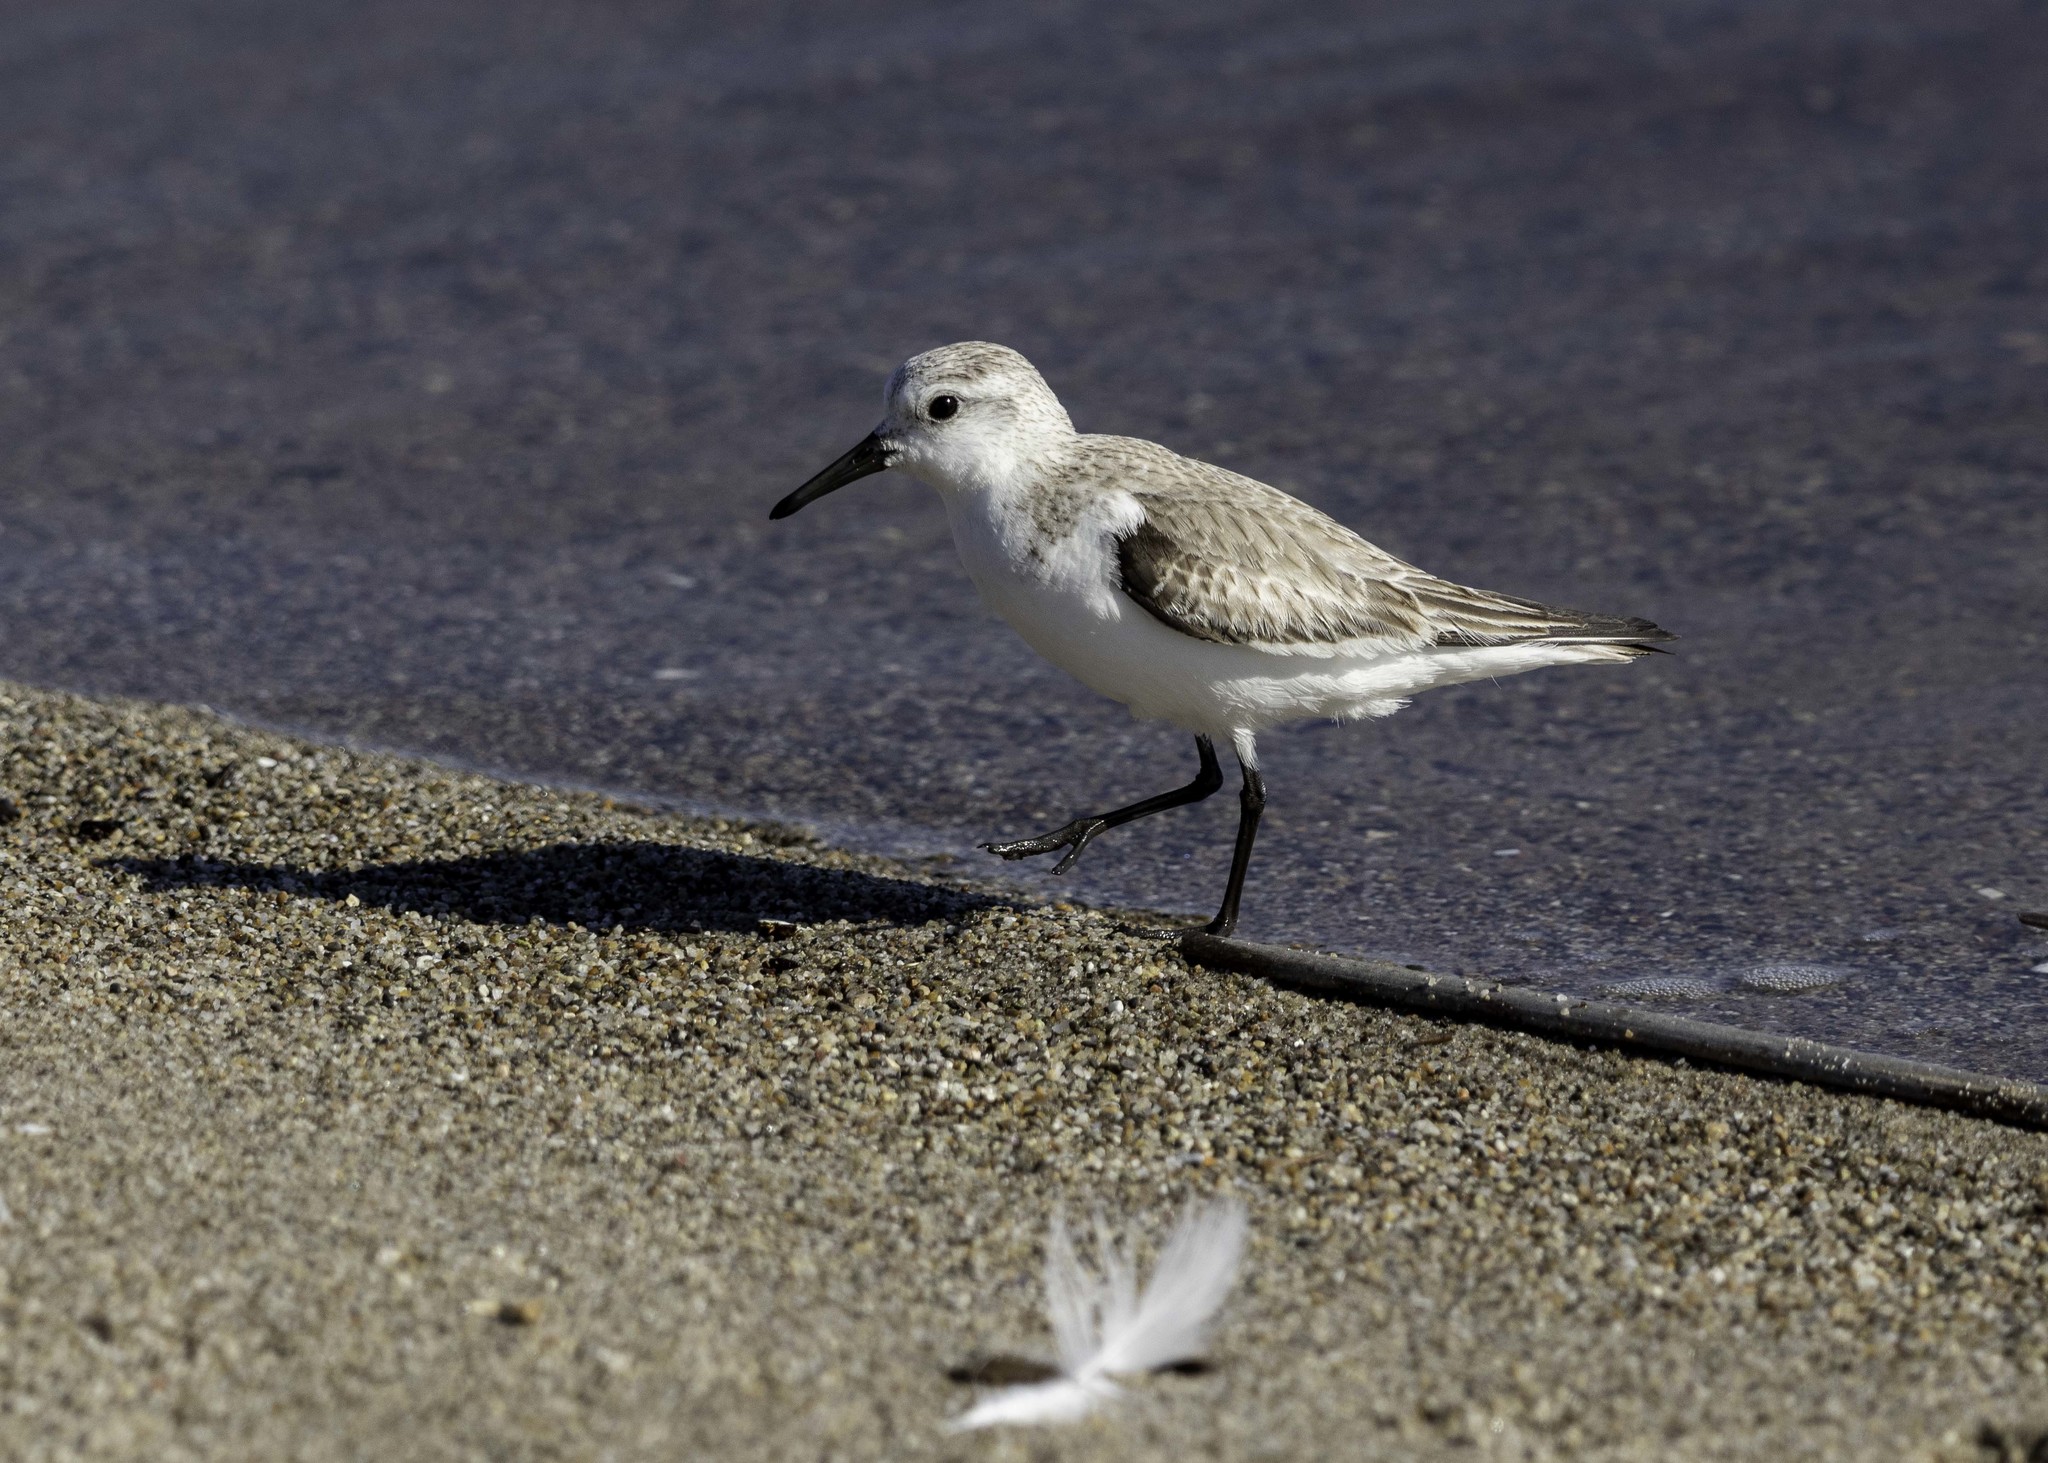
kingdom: Animalia
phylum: Chordata
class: Aves
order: Charadriiformes
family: Scolopacidae
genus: Calidris
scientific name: Calidris alba
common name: Sanderling
